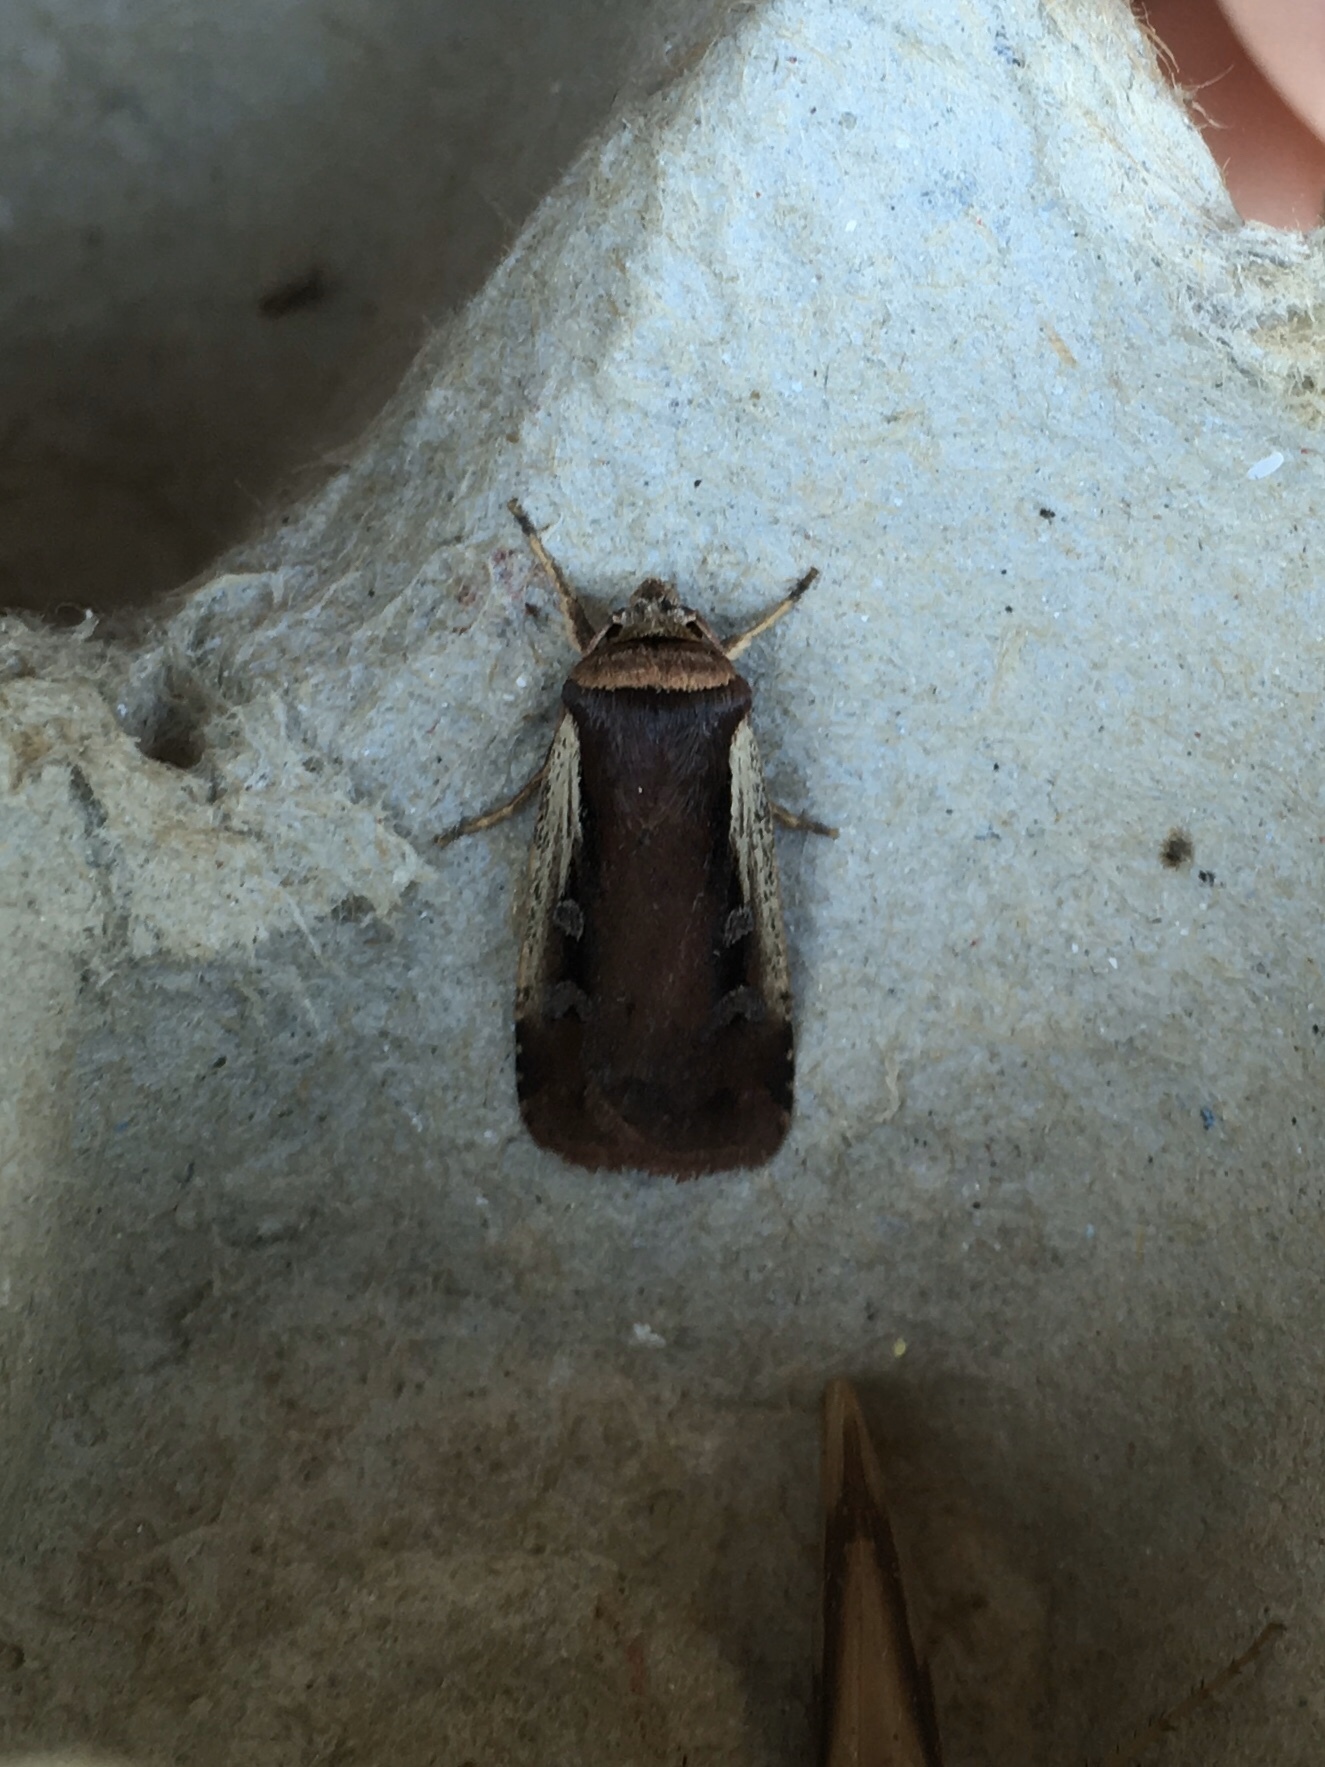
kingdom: Animalia
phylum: Arthropoda
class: Insecta
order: Lepidoptera
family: Noctuidae
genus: Ochropleura
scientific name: Ochropleura implecta
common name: Flame-shouldered dart
